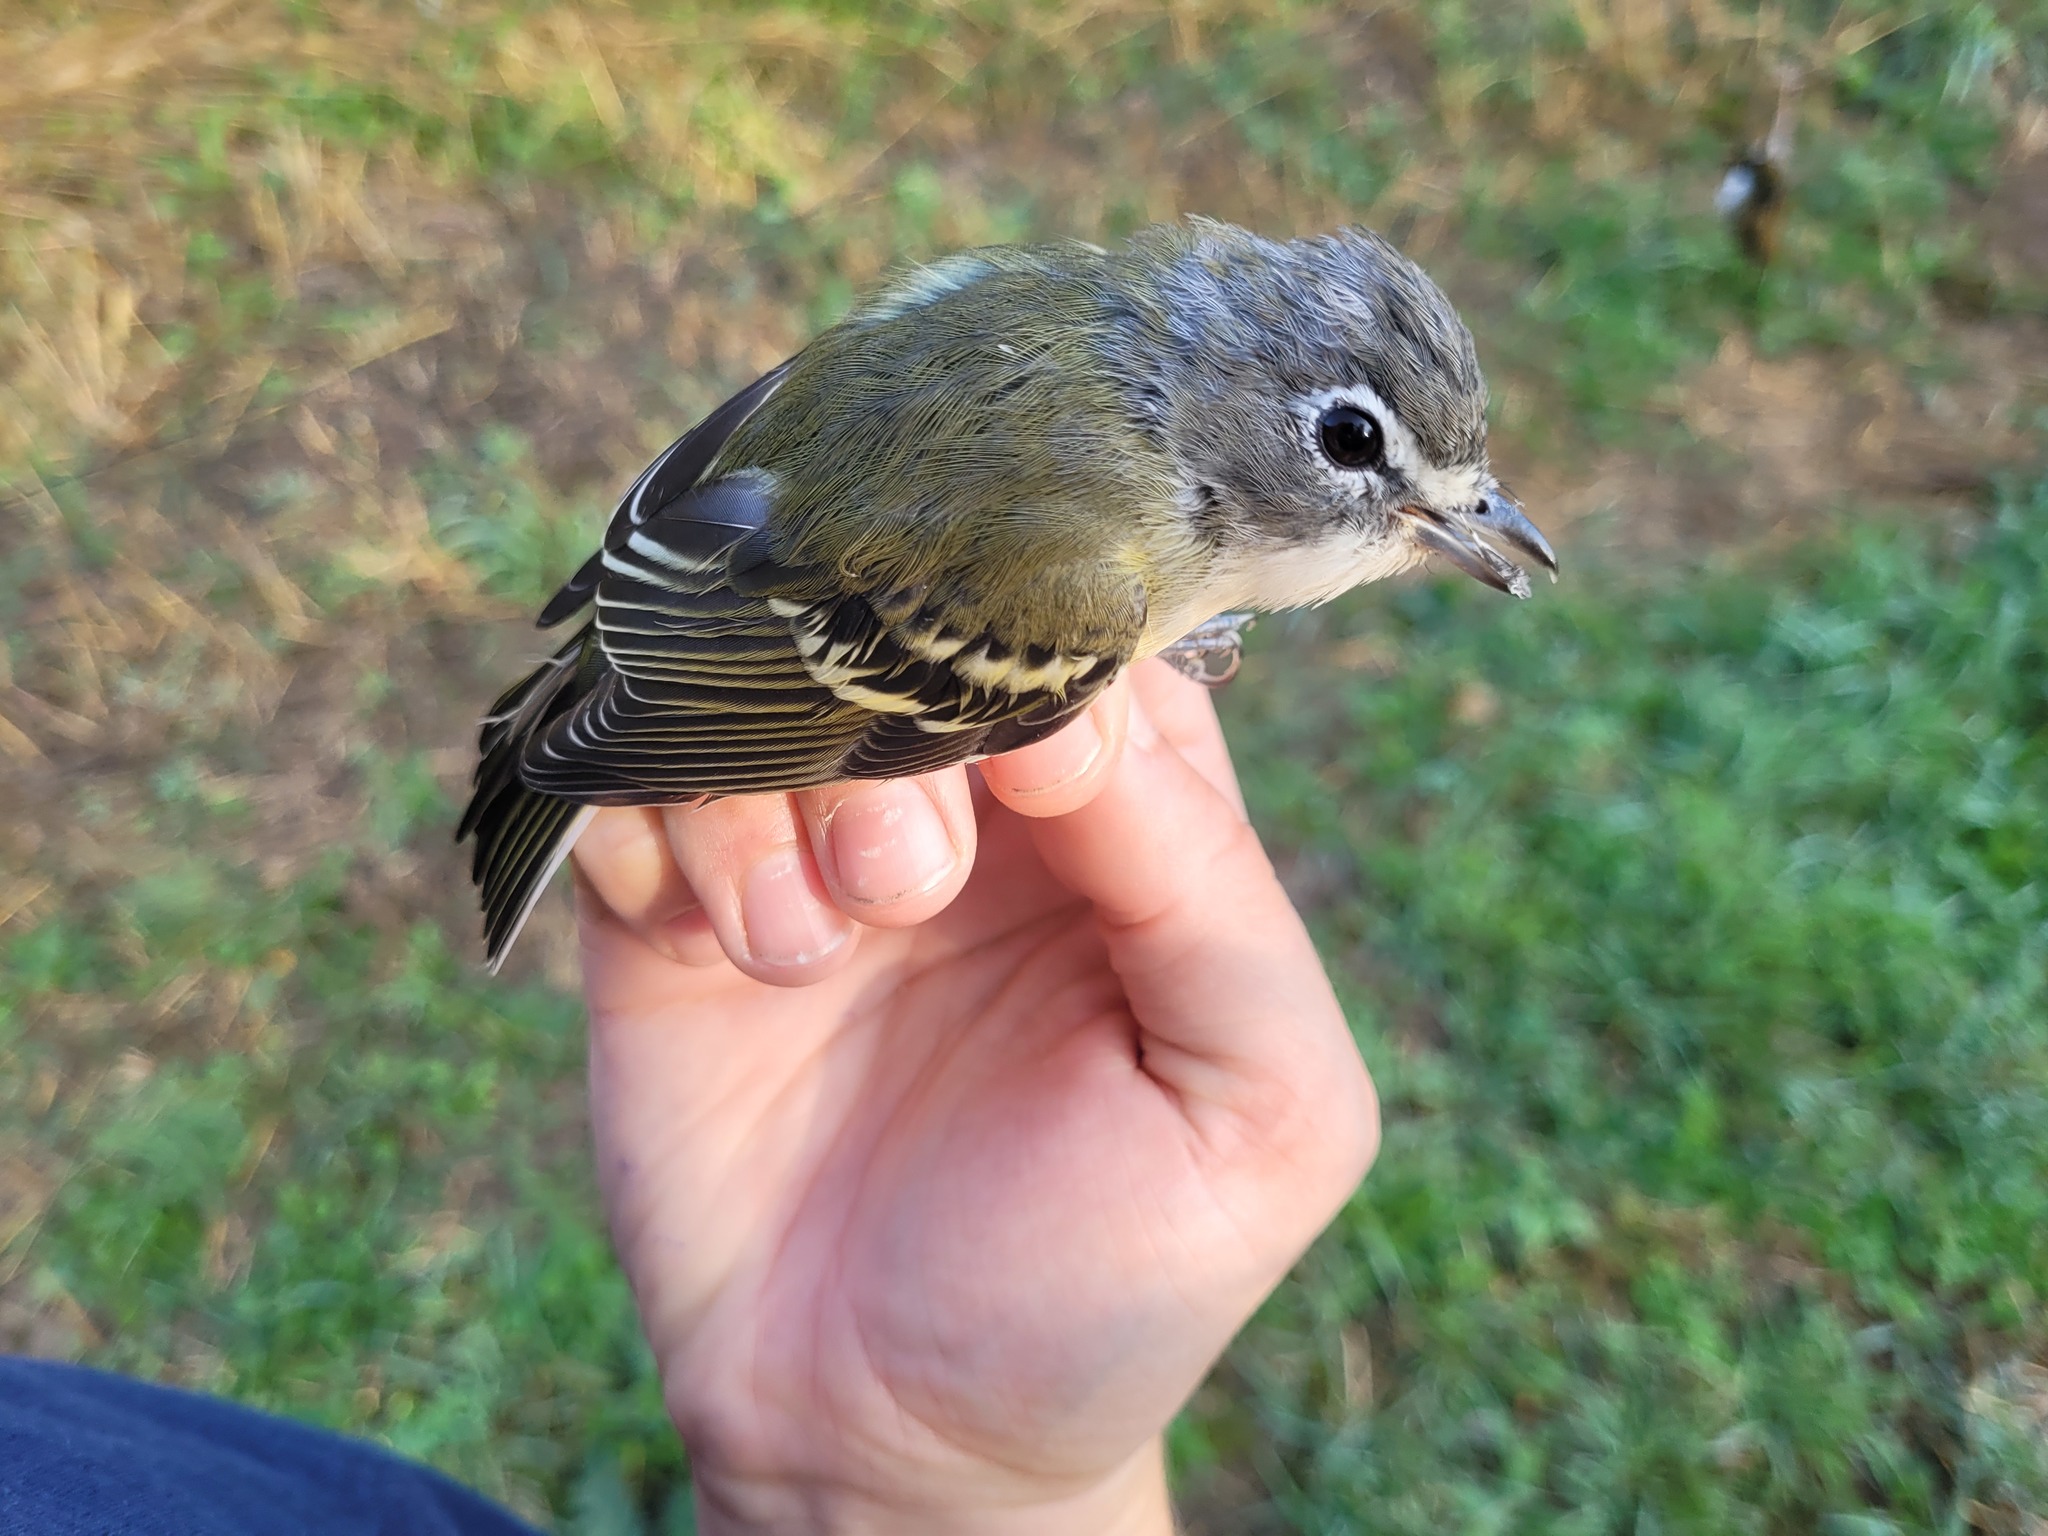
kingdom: Animalia
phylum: Chordata
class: Aves
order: Passeriformes
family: Vireonidae
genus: Vireo
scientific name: Vireo solitarius
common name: Blue-headed vireo
